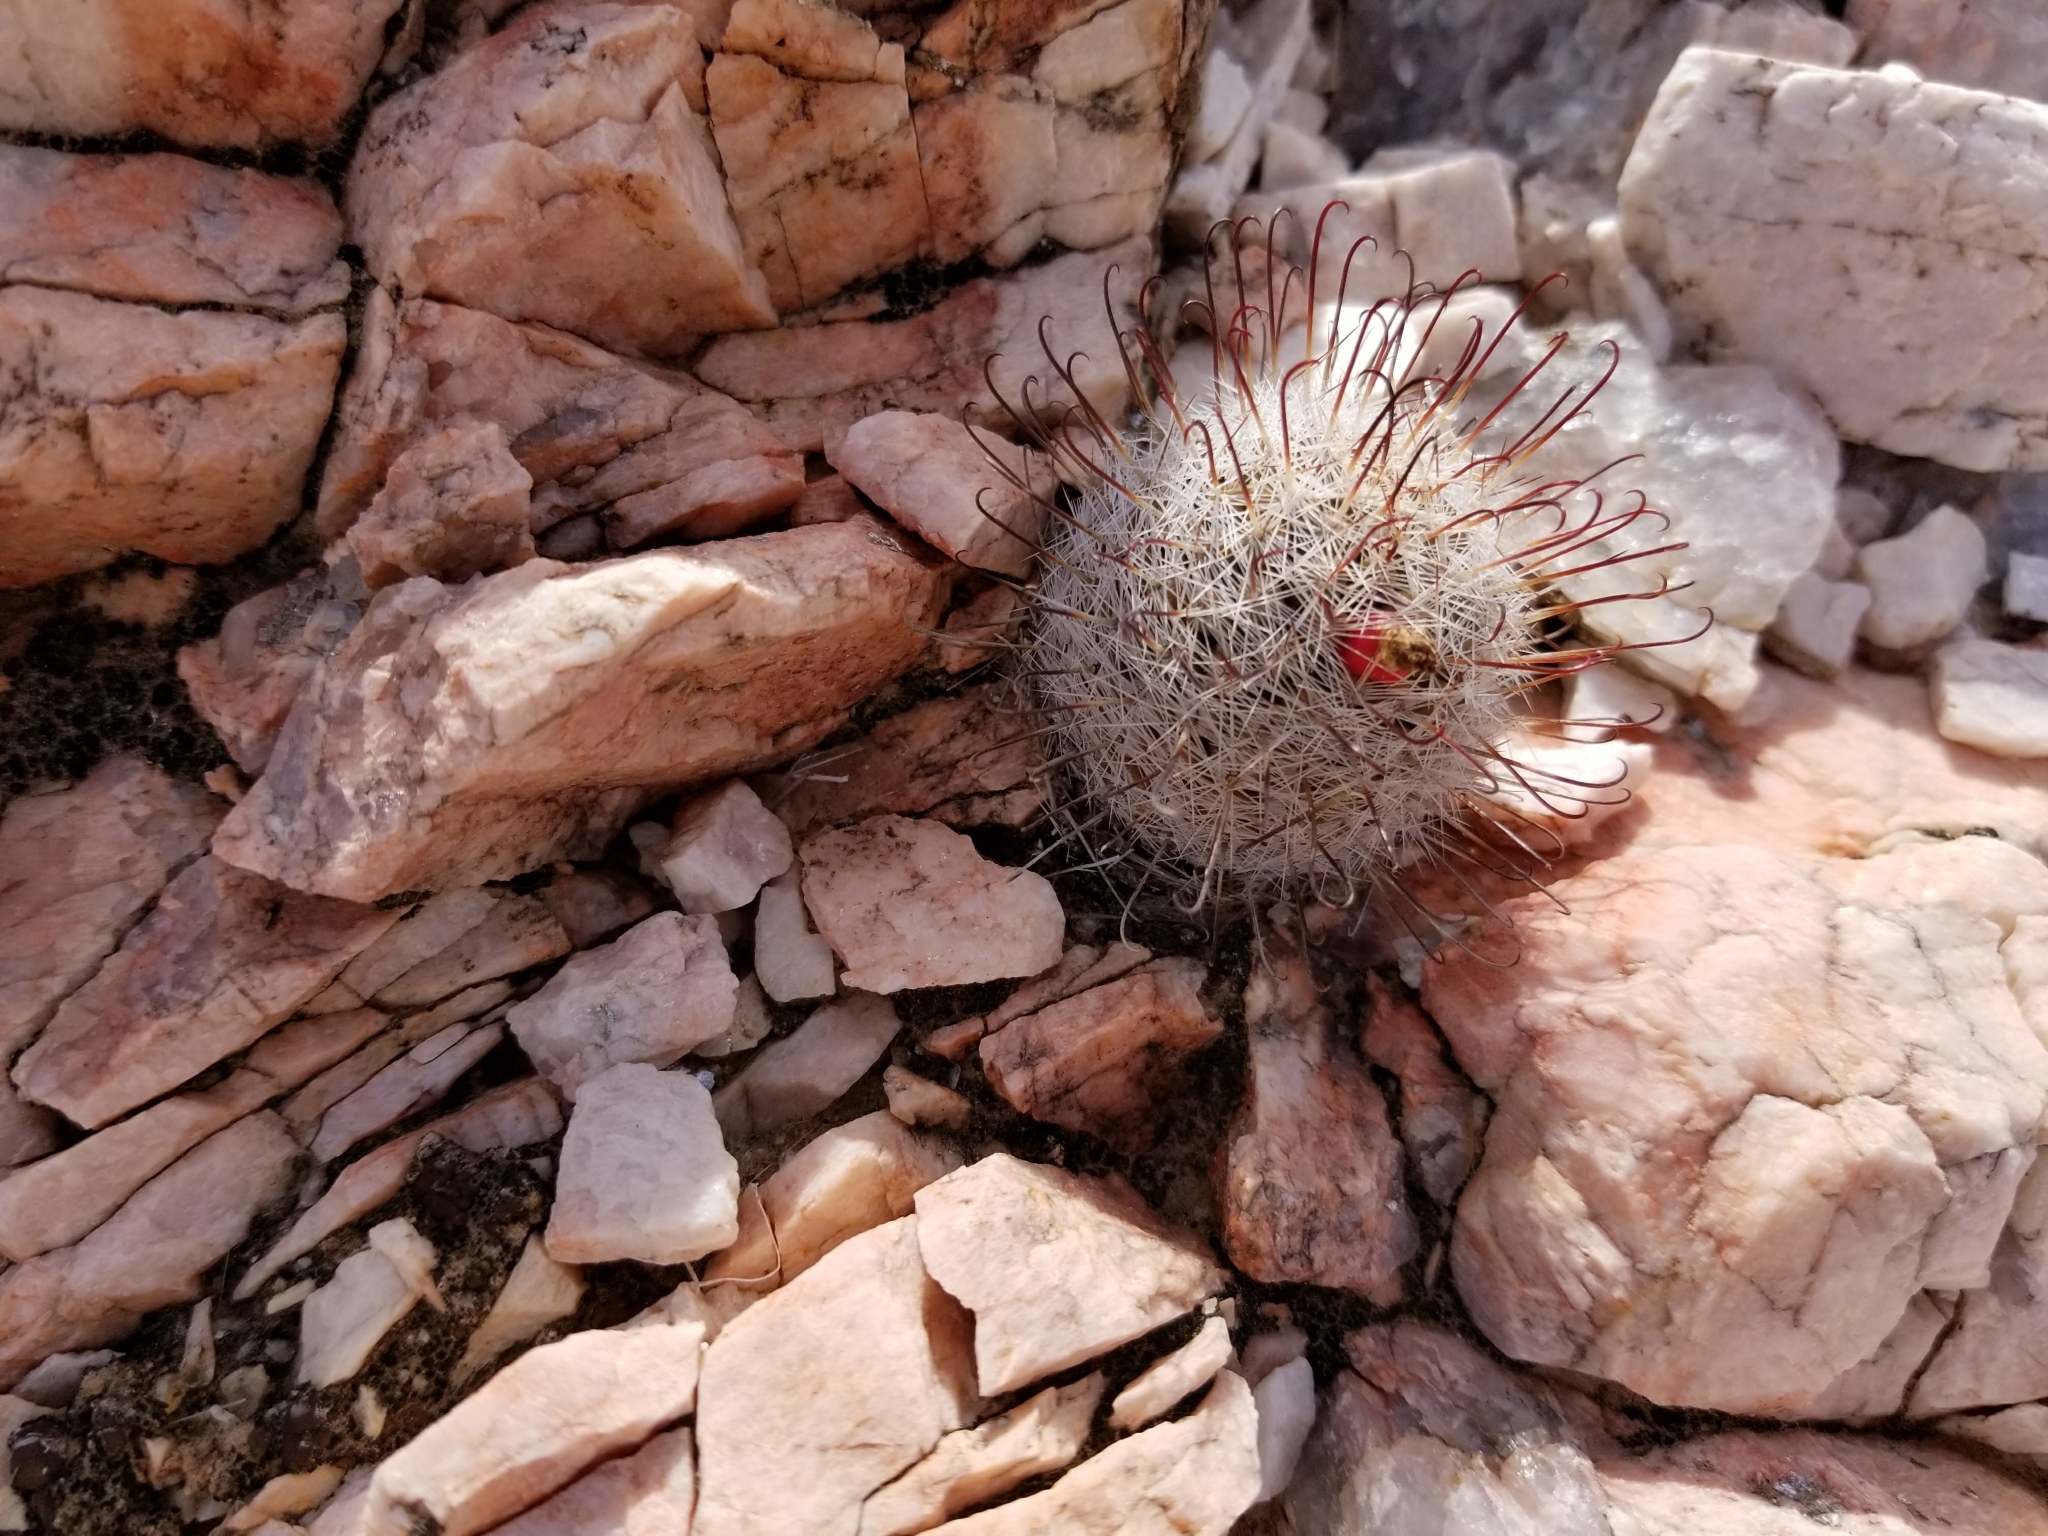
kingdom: Plantae
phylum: Tracheophyta
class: Magnoliopsida
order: Caryophyllales
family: Cactaceae
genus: Cochemiea
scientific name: Cochemiea tetrancistra
